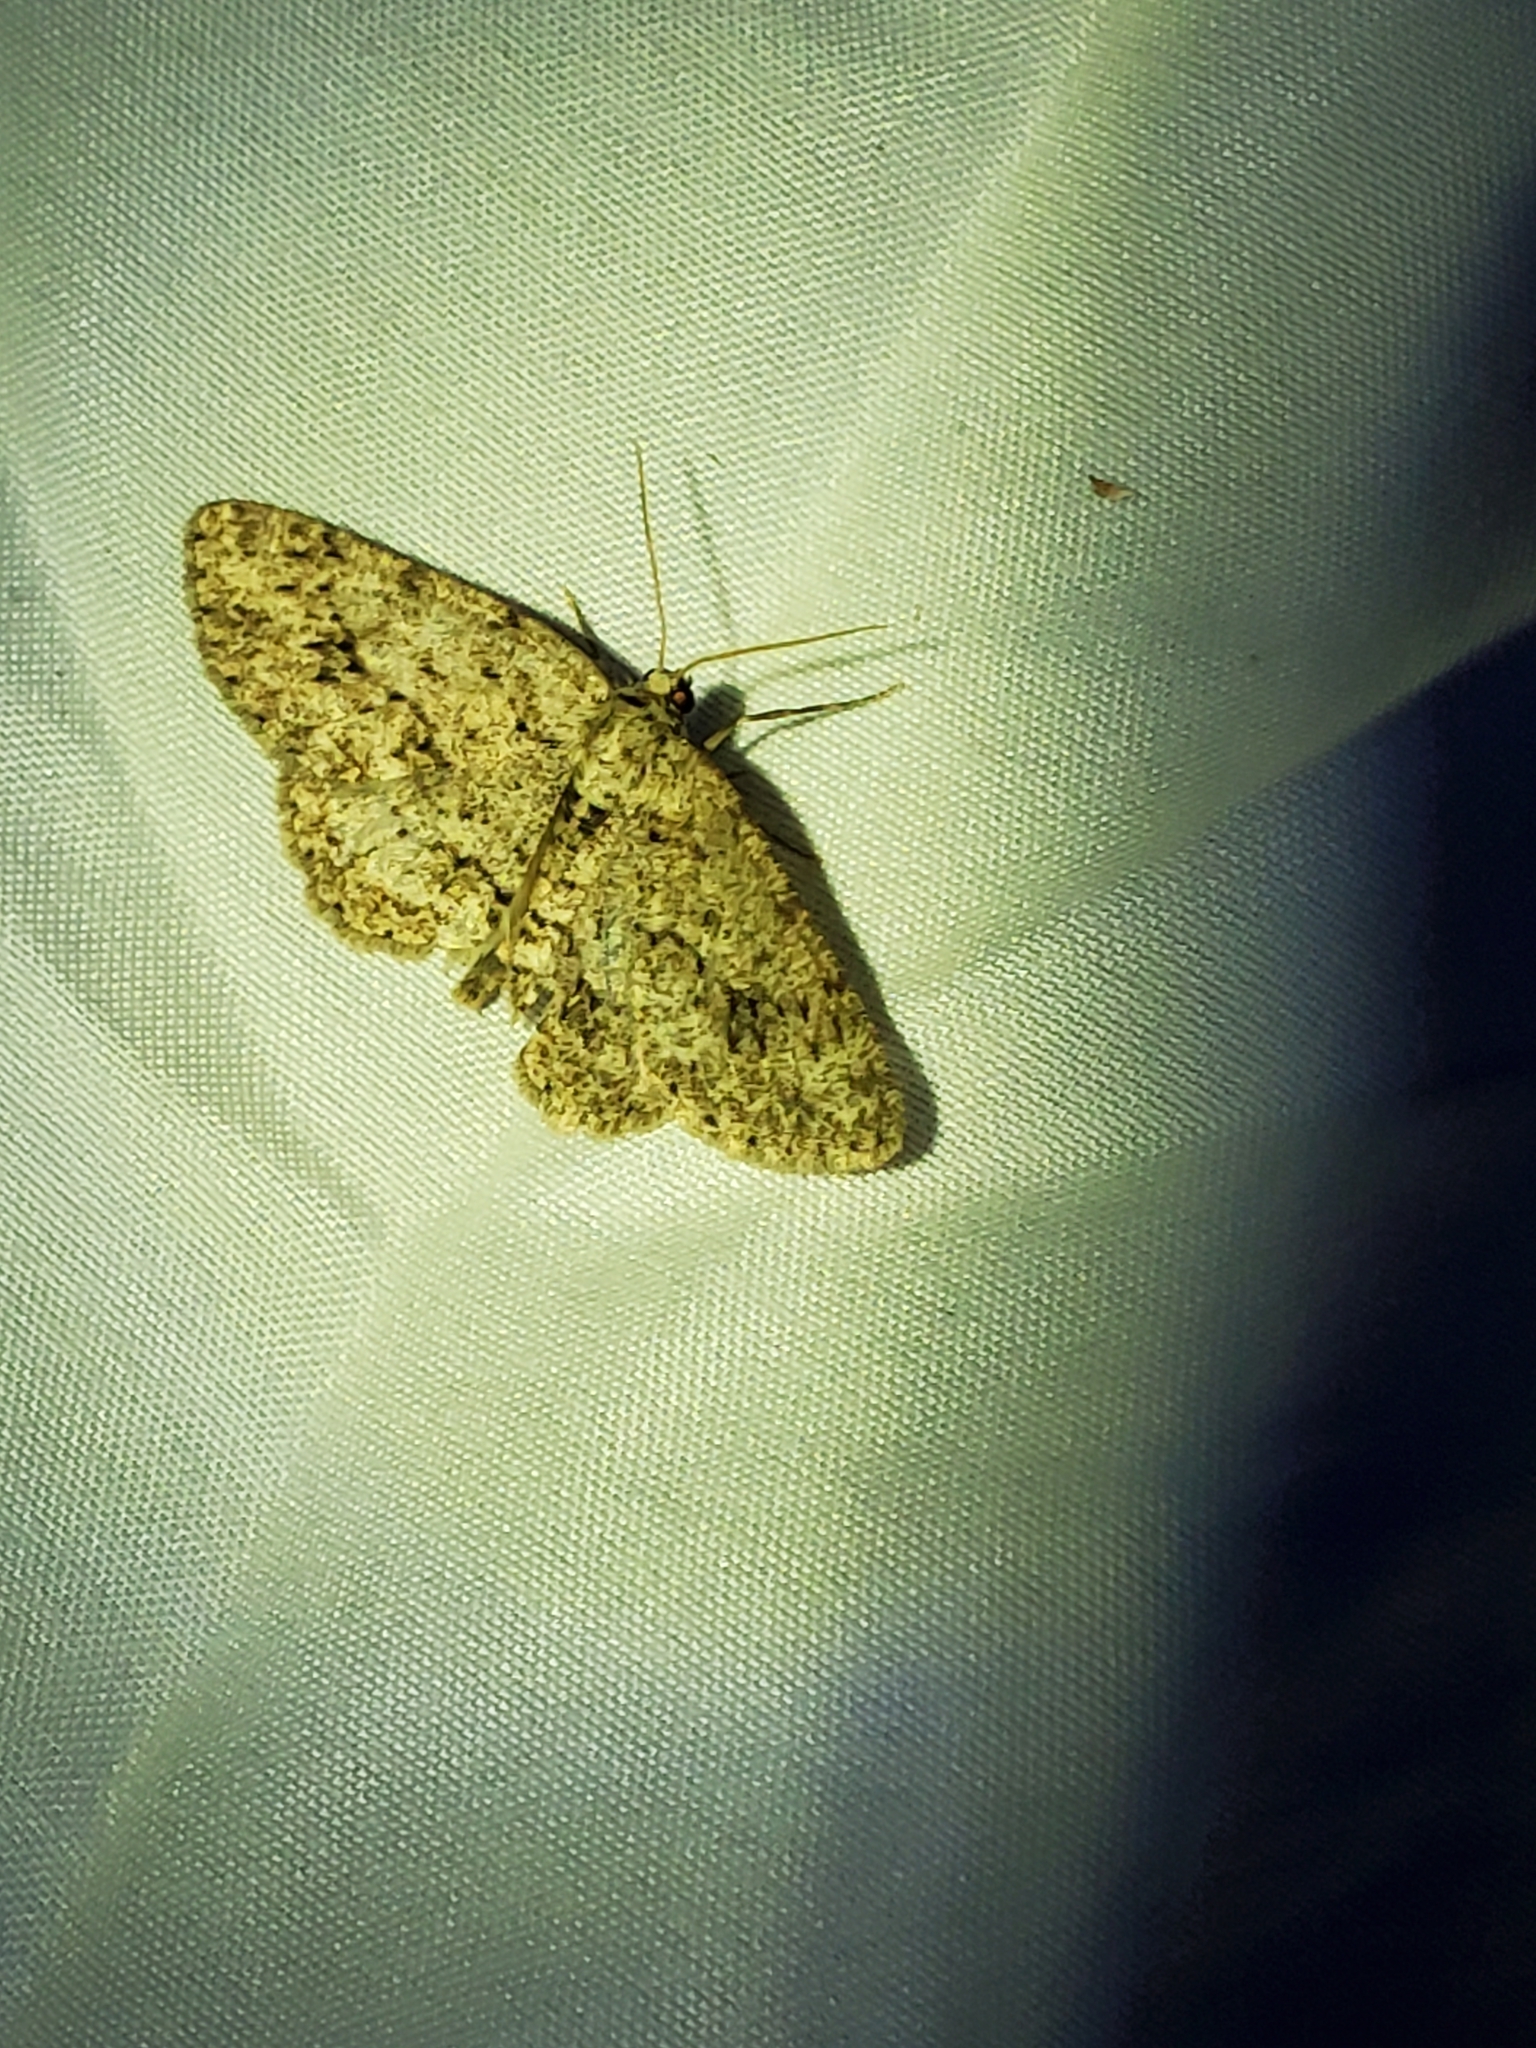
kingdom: Animalia
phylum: Arthropoda
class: Insecta
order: Lepidoptera
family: Geometridae
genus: Ectropis
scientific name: Ectropis crepuscularia
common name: Engrailed
